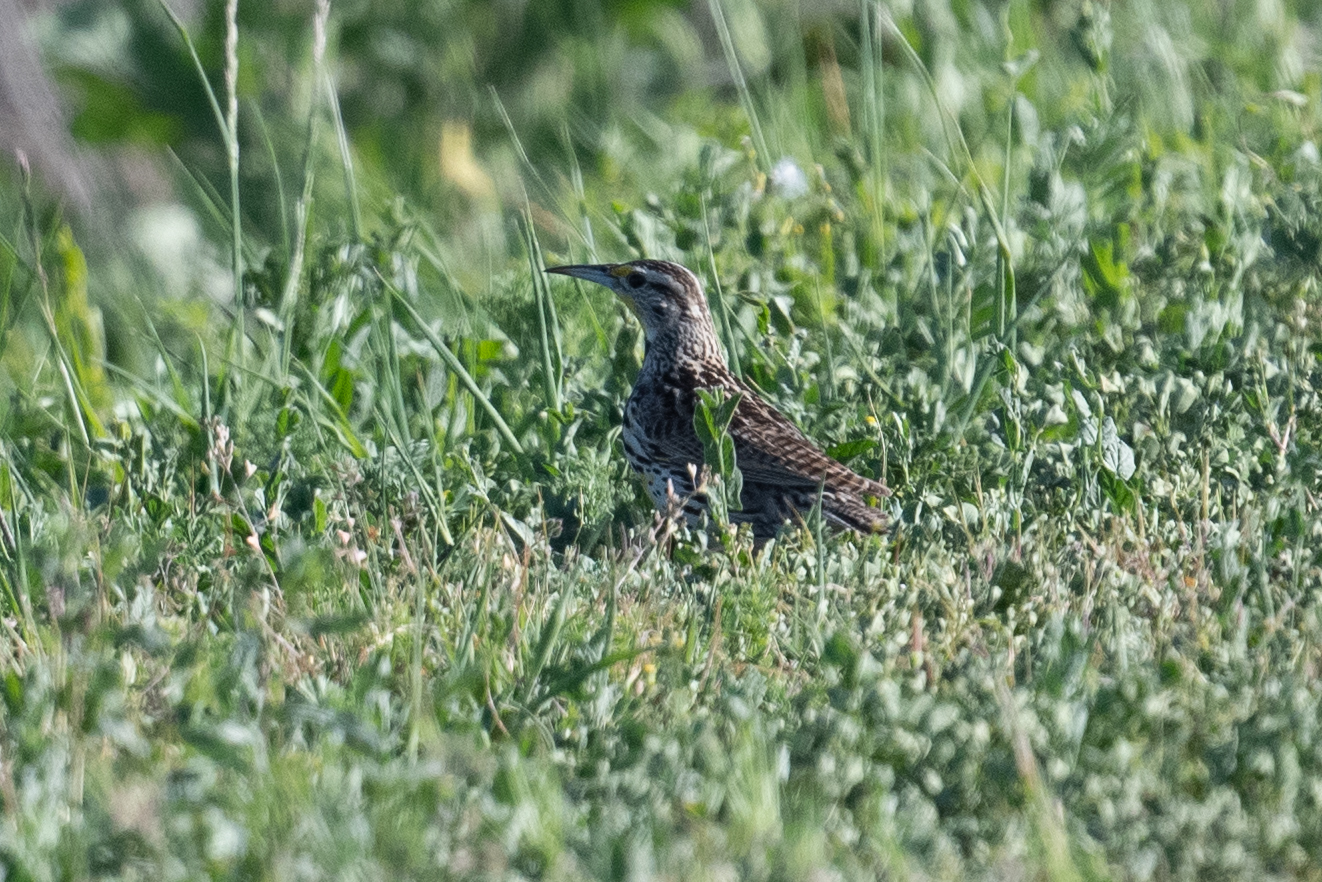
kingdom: Animalia
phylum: Chordata
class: Aves
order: Passeriformes
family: Icteridae
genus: Sturnella
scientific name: Sturnella neglecta
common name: Western meadowlark
